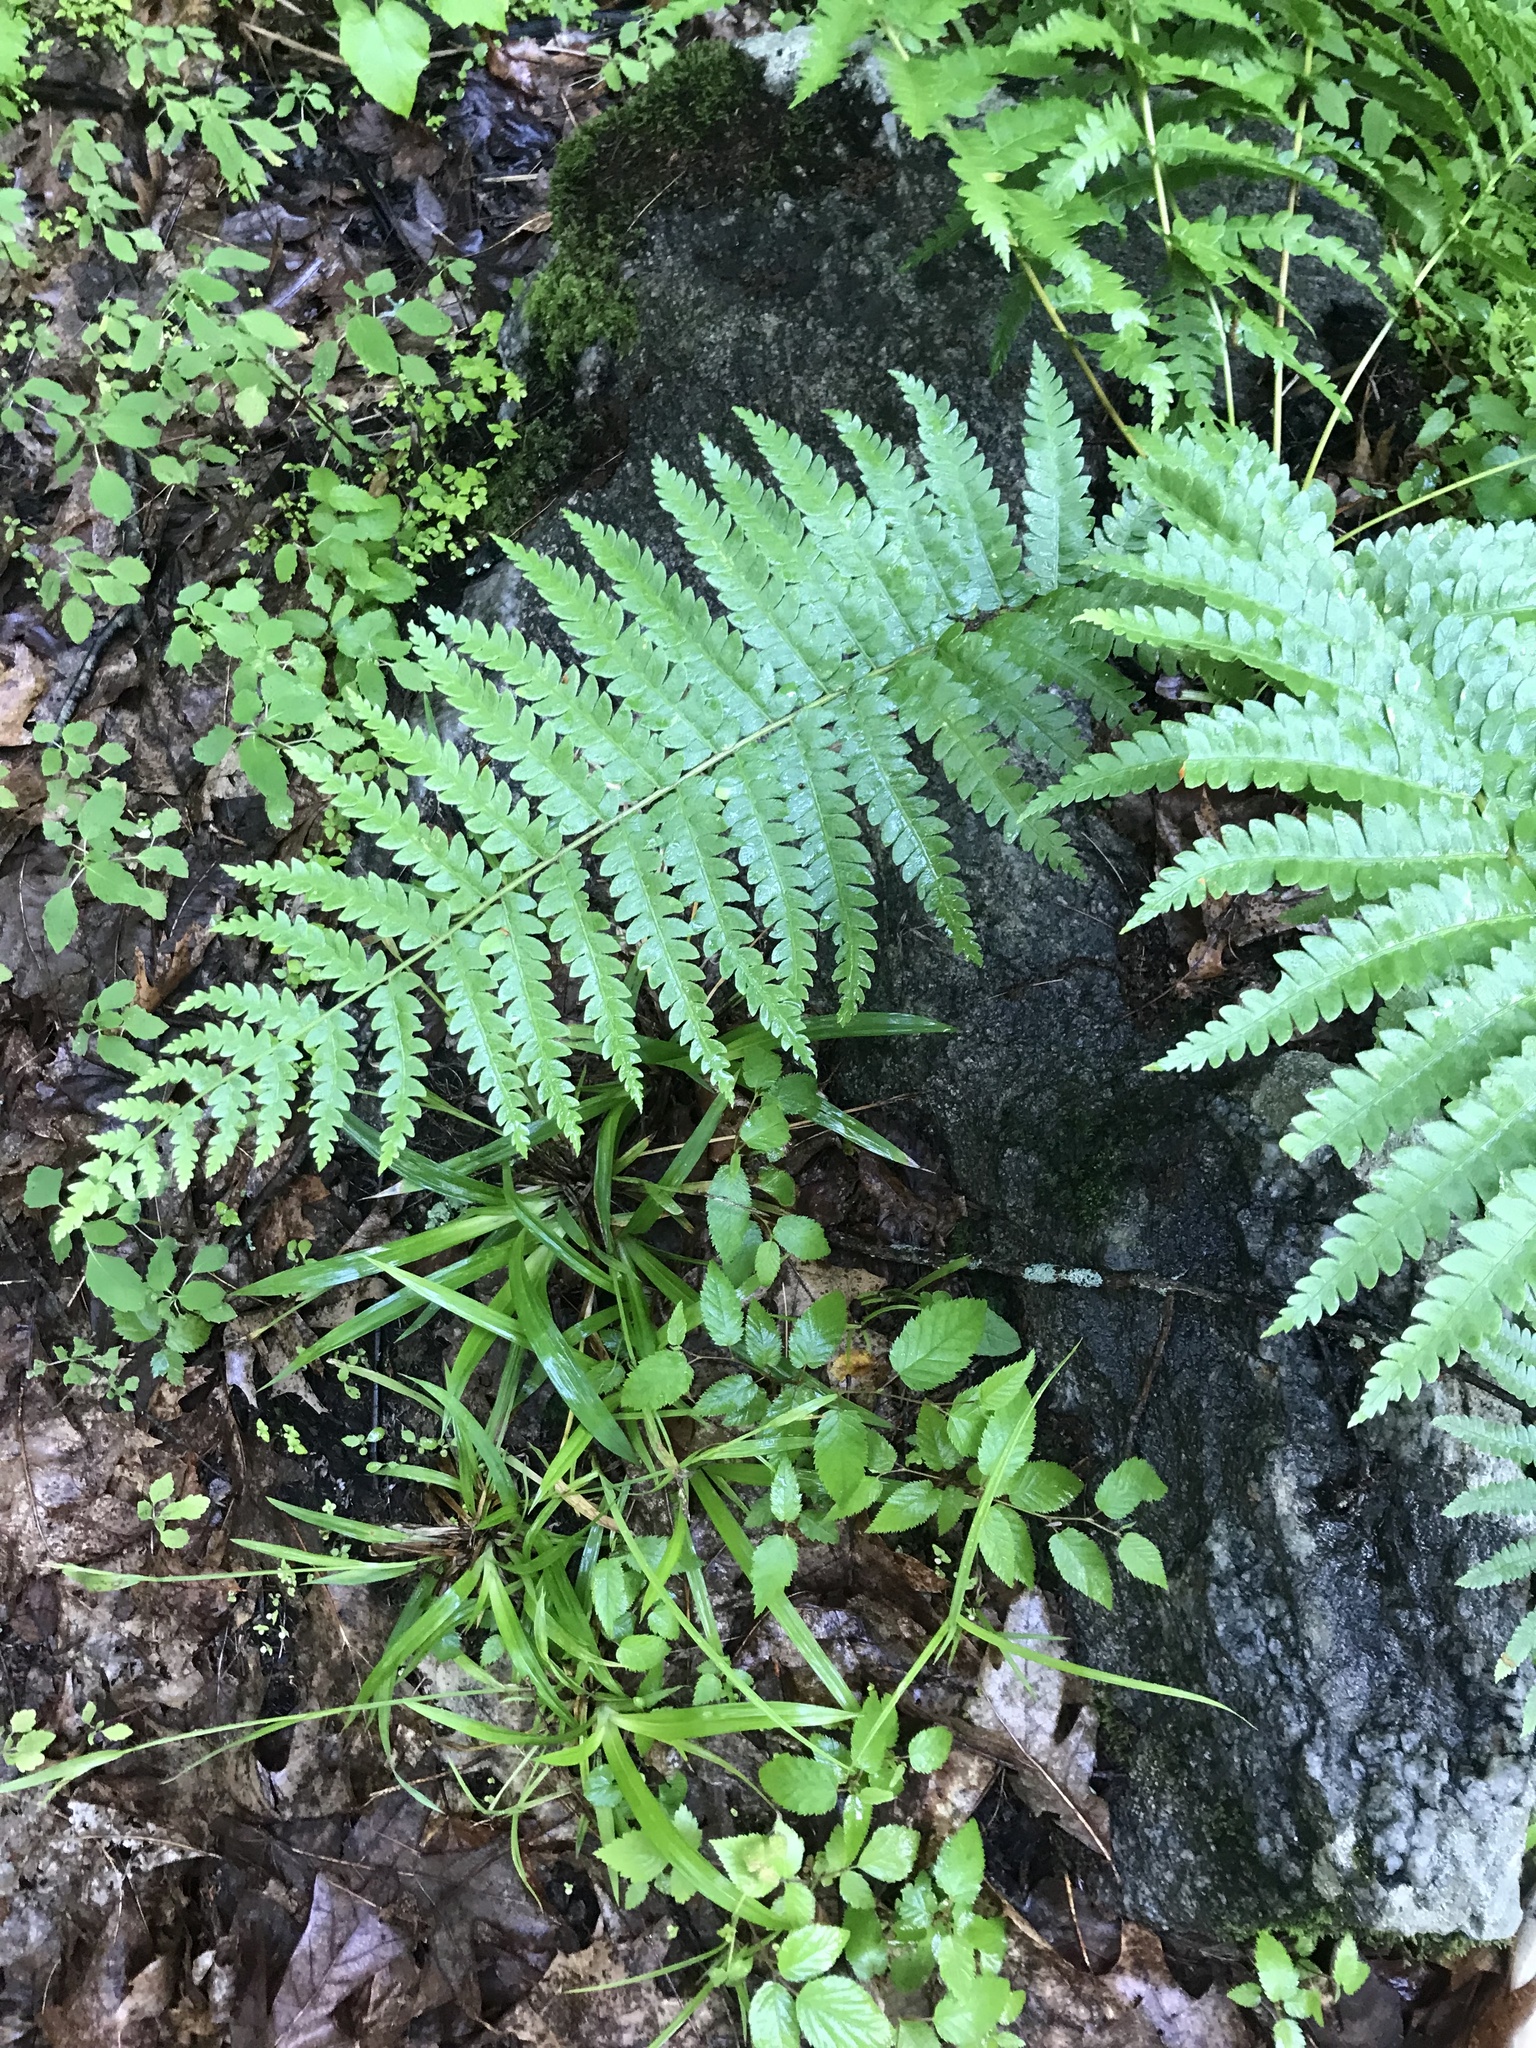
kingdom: Plantae
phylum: Tracheophyta
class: Polypodiopsida
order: Osmundales
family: Osmundaceae
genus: Osmundastrum
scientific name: Osmundastrum cinnamomeum
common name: Cinnamon fern
